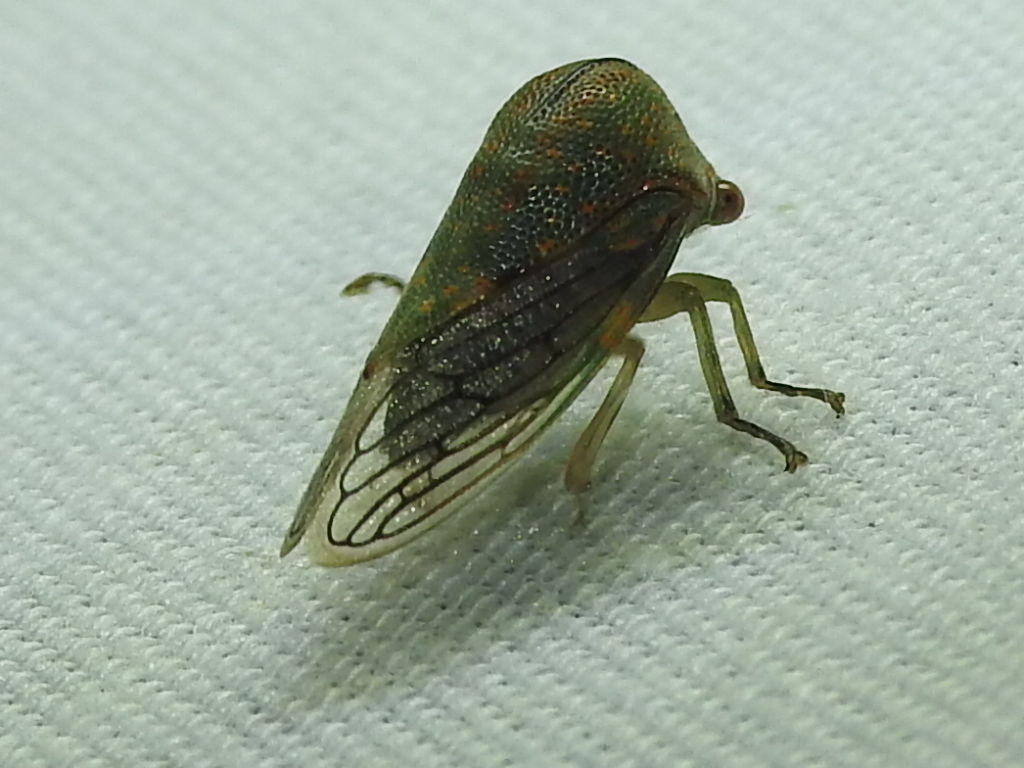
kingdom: Animalia
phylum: Arthropoda
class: Insecta
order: Hemiptera
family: Membracidae
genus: Platycotis
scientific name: Platycotis vittatus
